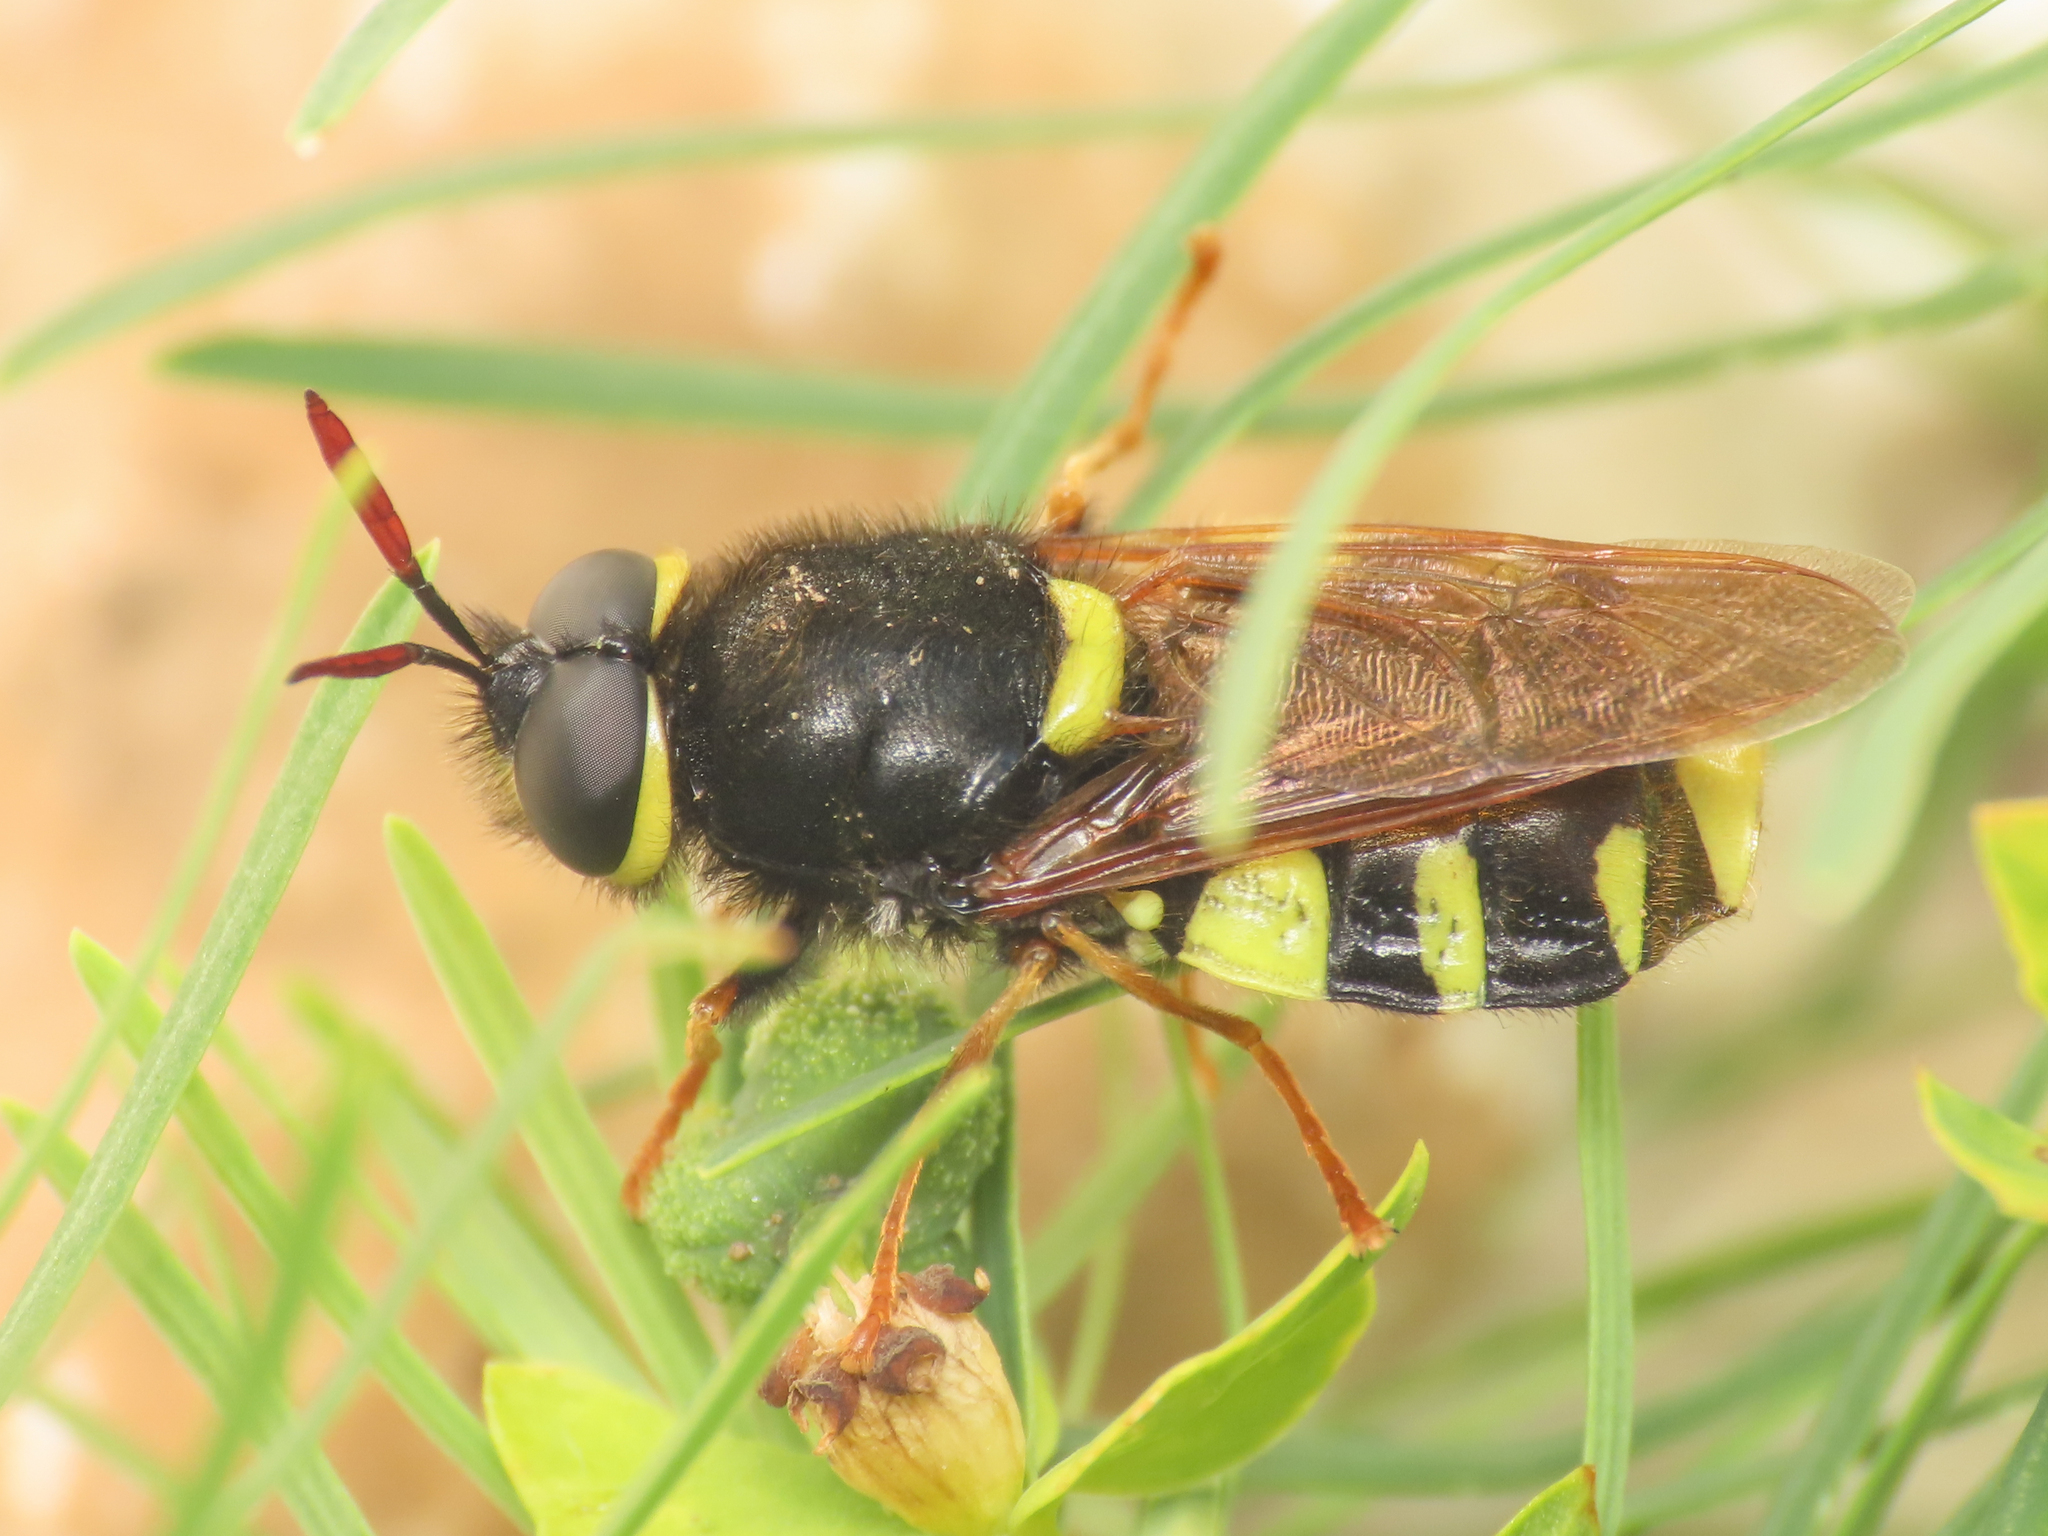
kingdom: Animalia
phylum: Arthropoda
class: Insecta
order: Diptera
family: Stratiomyidae
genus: Stratiomys
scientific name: Stratiomys rubricornis
